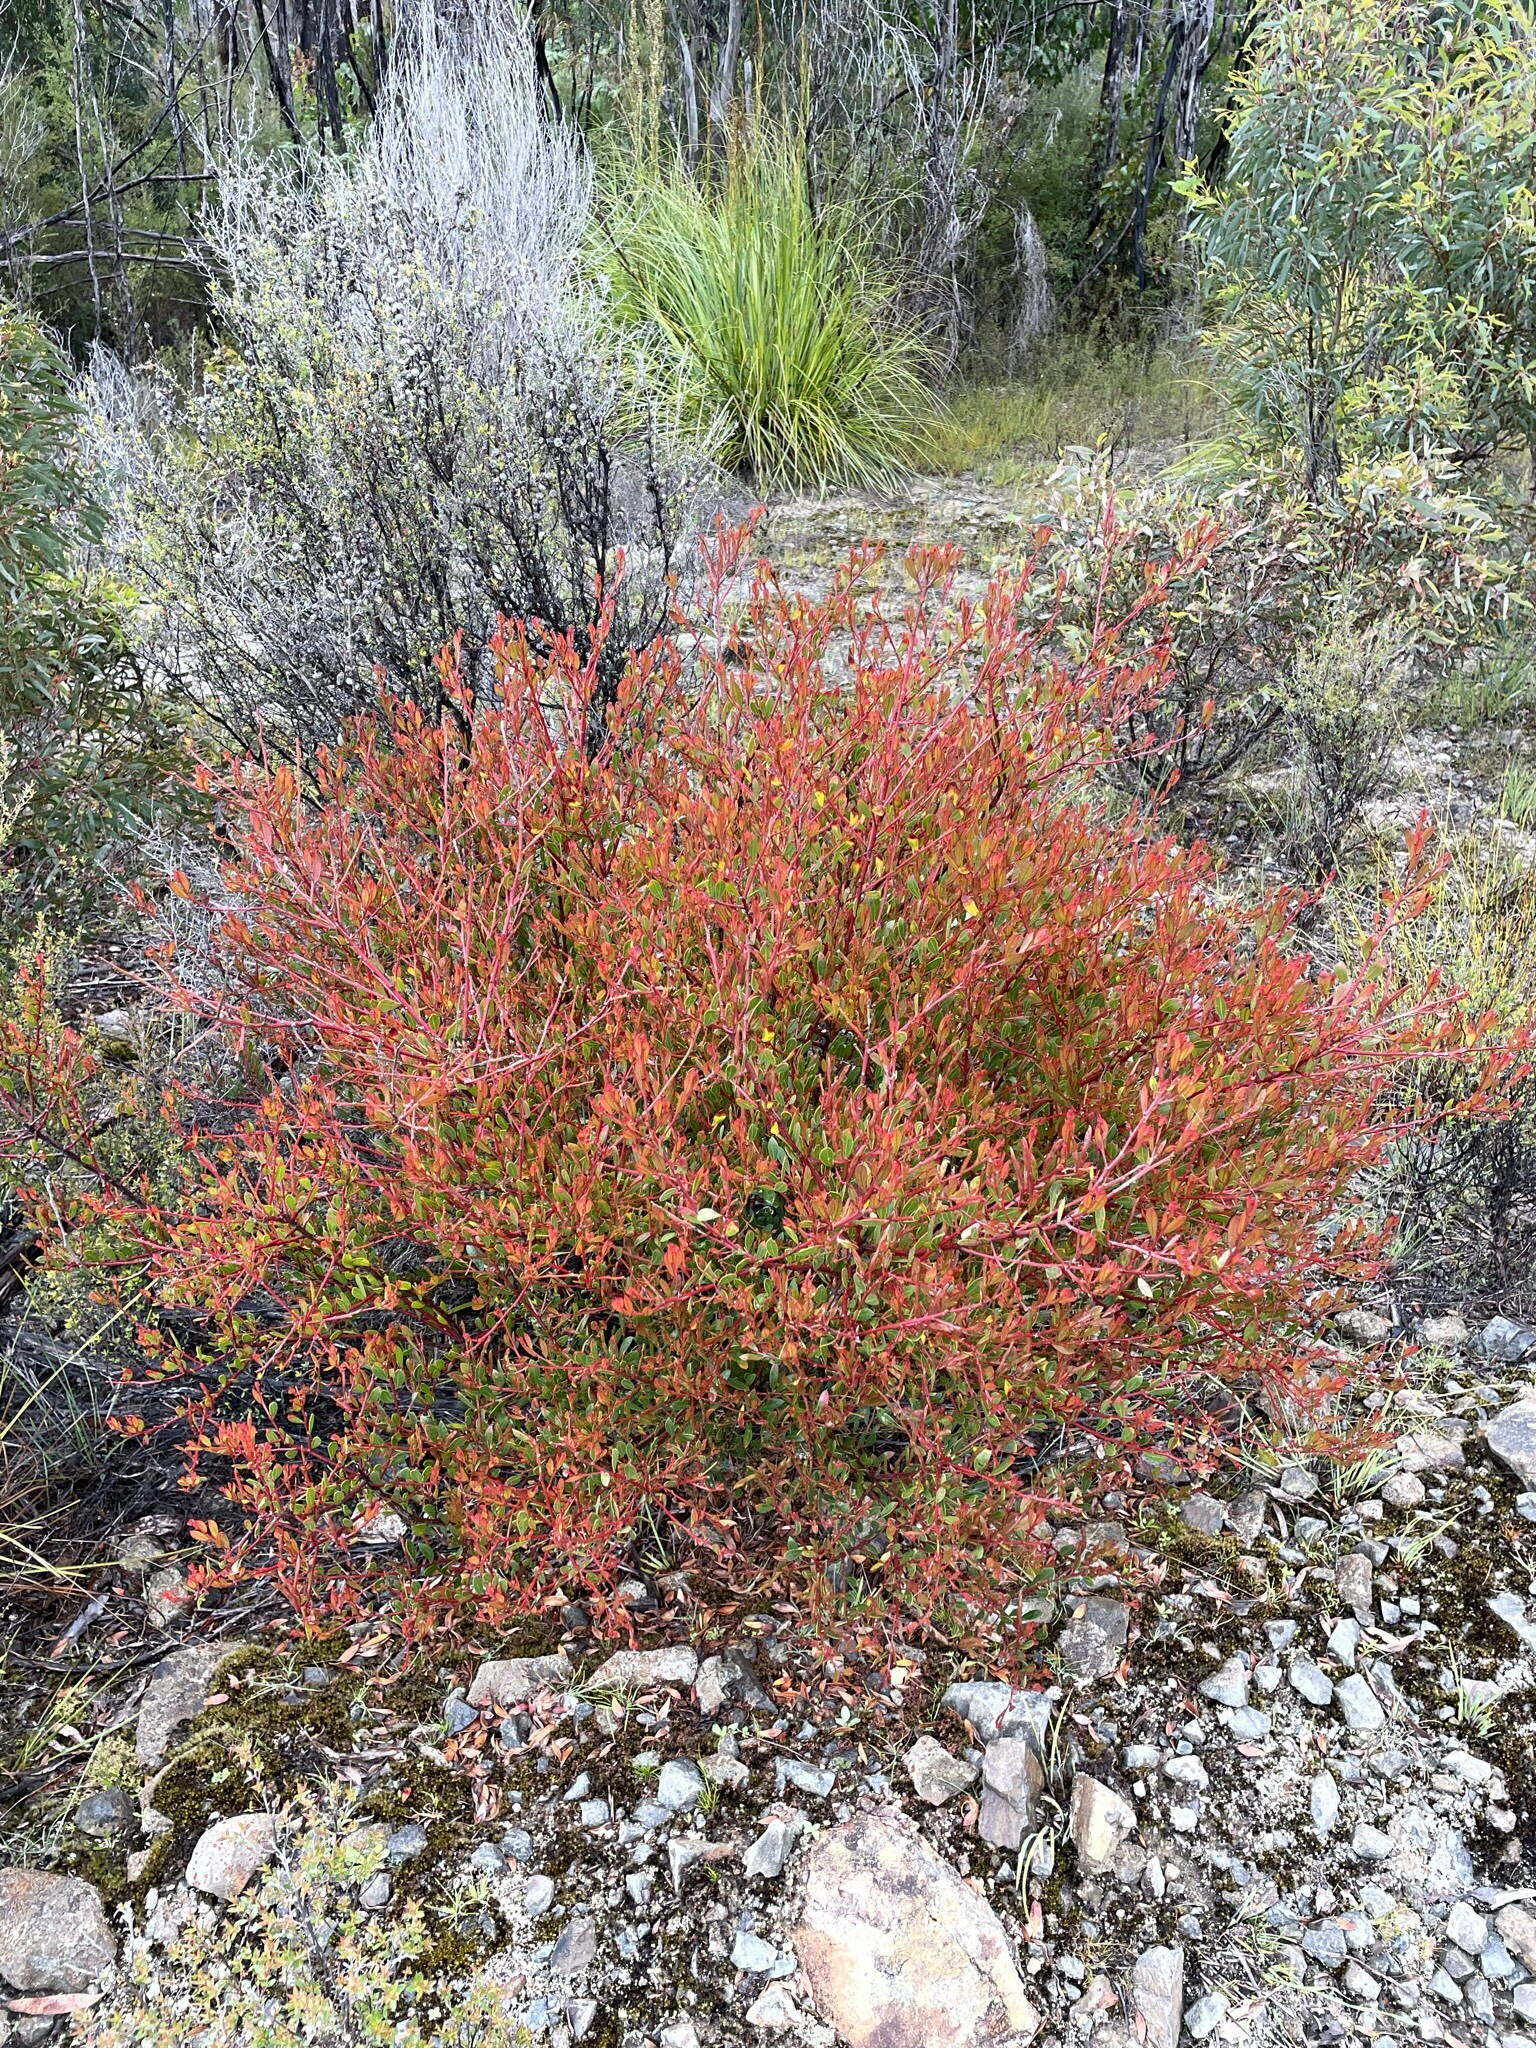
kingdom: Plantae
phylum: Tracheophyta
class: Magnoliopsida
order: Fabales
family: Fabaceae
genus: Acacia
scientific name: Acacia myrtifolia
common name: Myrtle wattle
